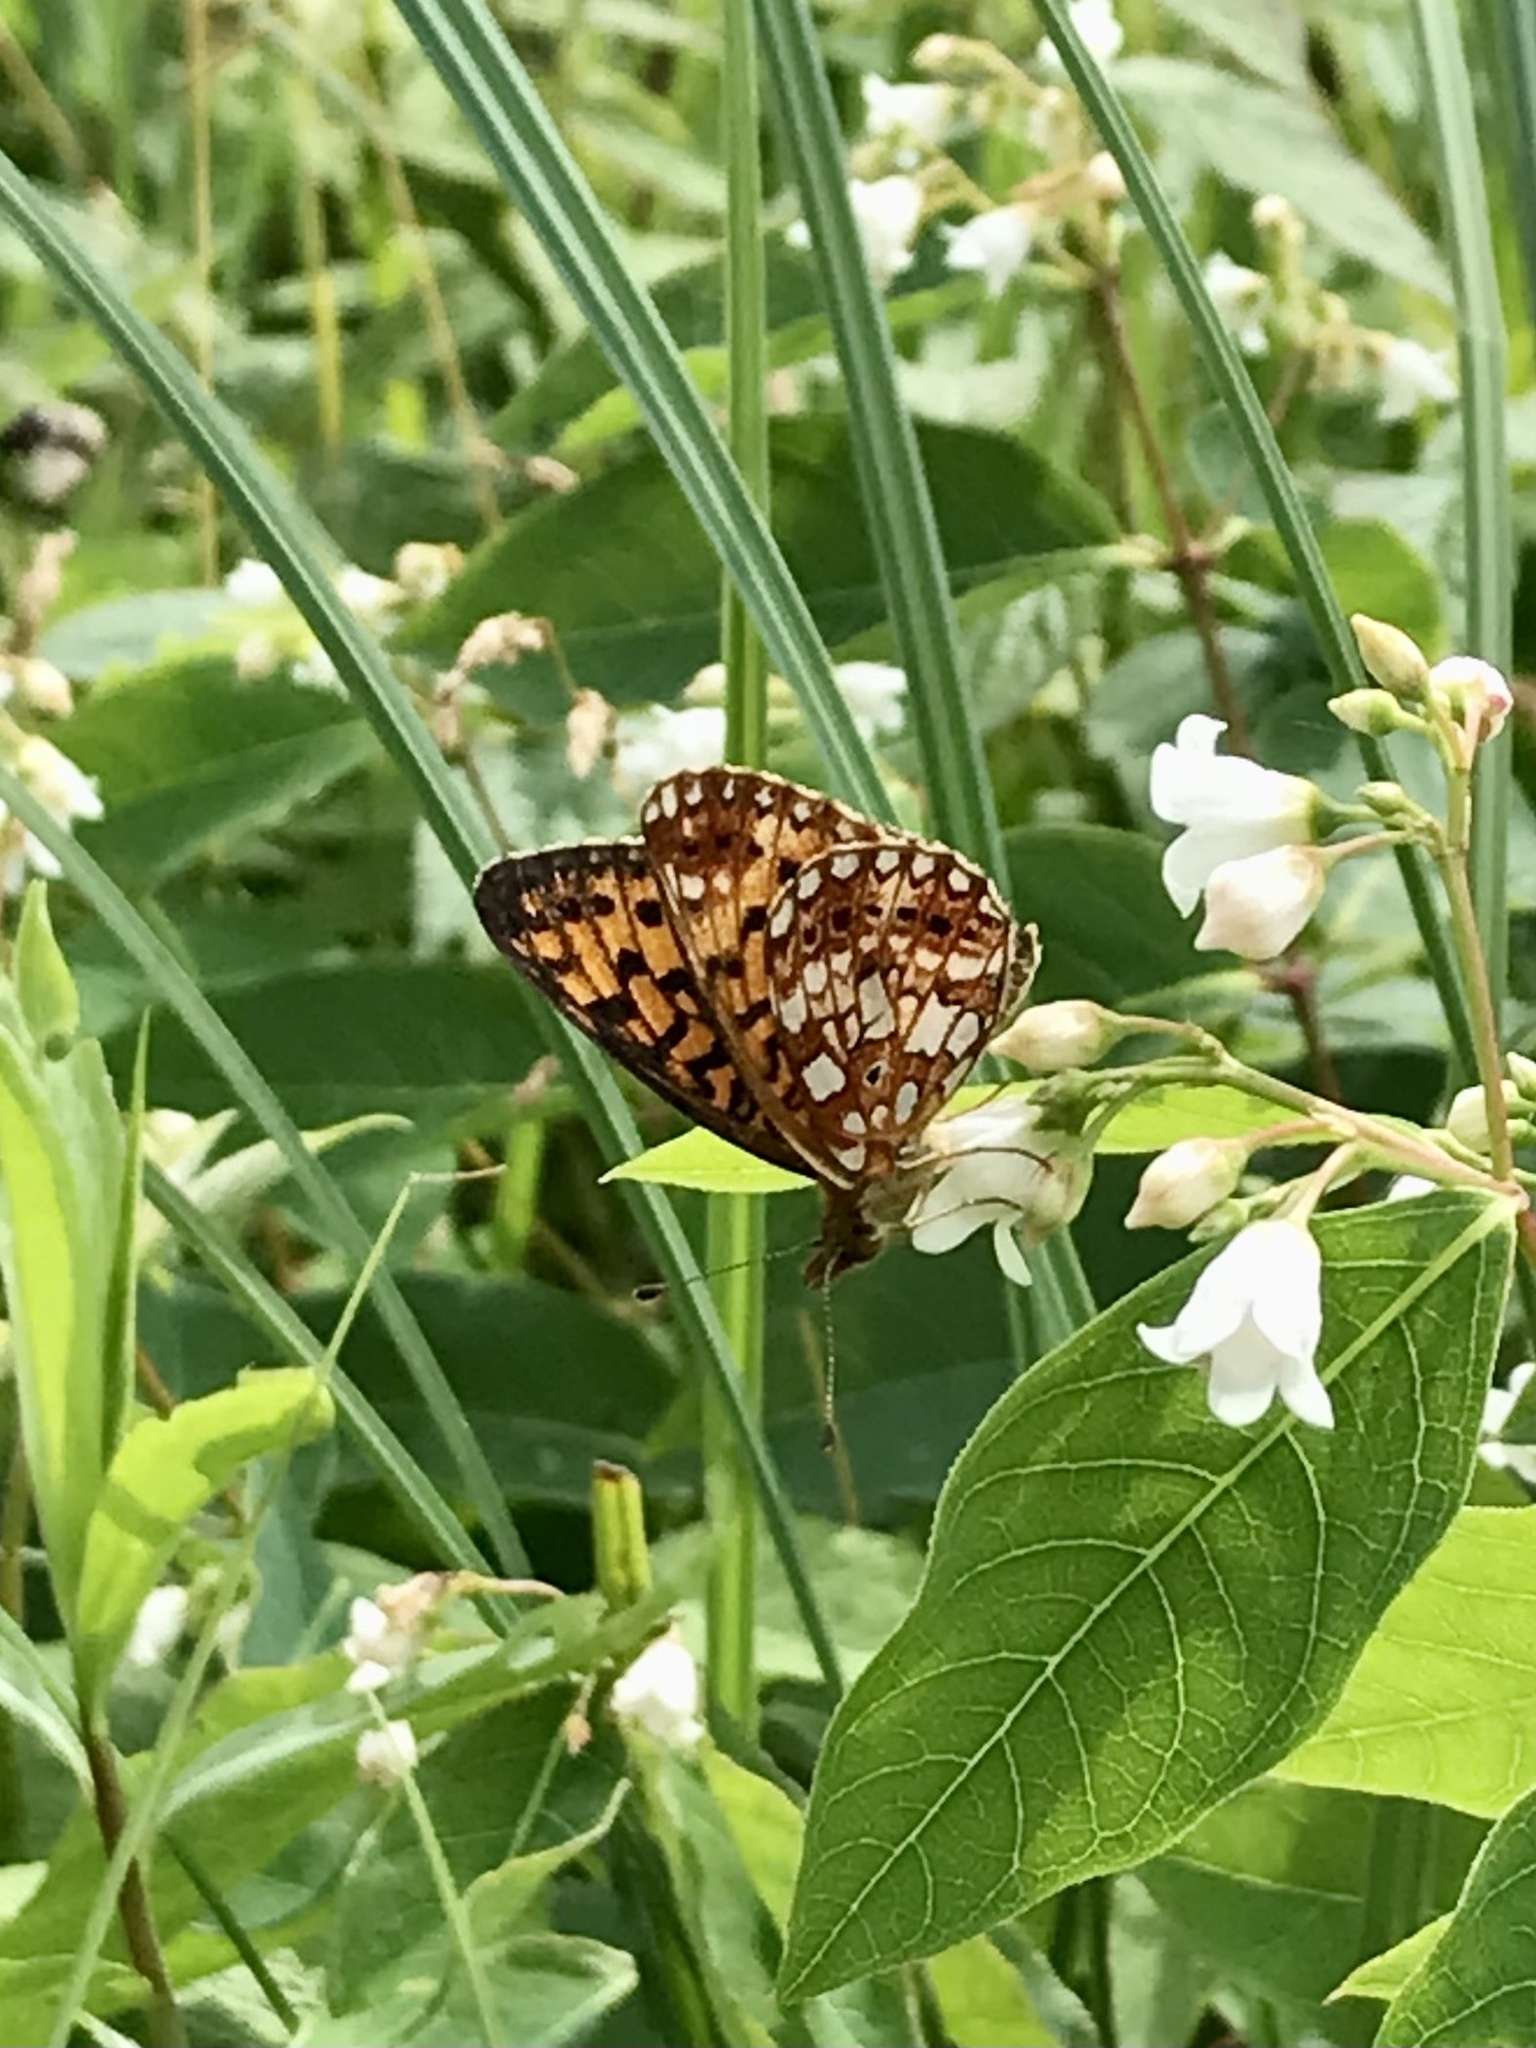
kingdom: Animalia
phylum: Arthropoda
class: Insecta
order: Lepidoptera
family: Nymphalidae
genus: Boloria
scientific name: Boloria
